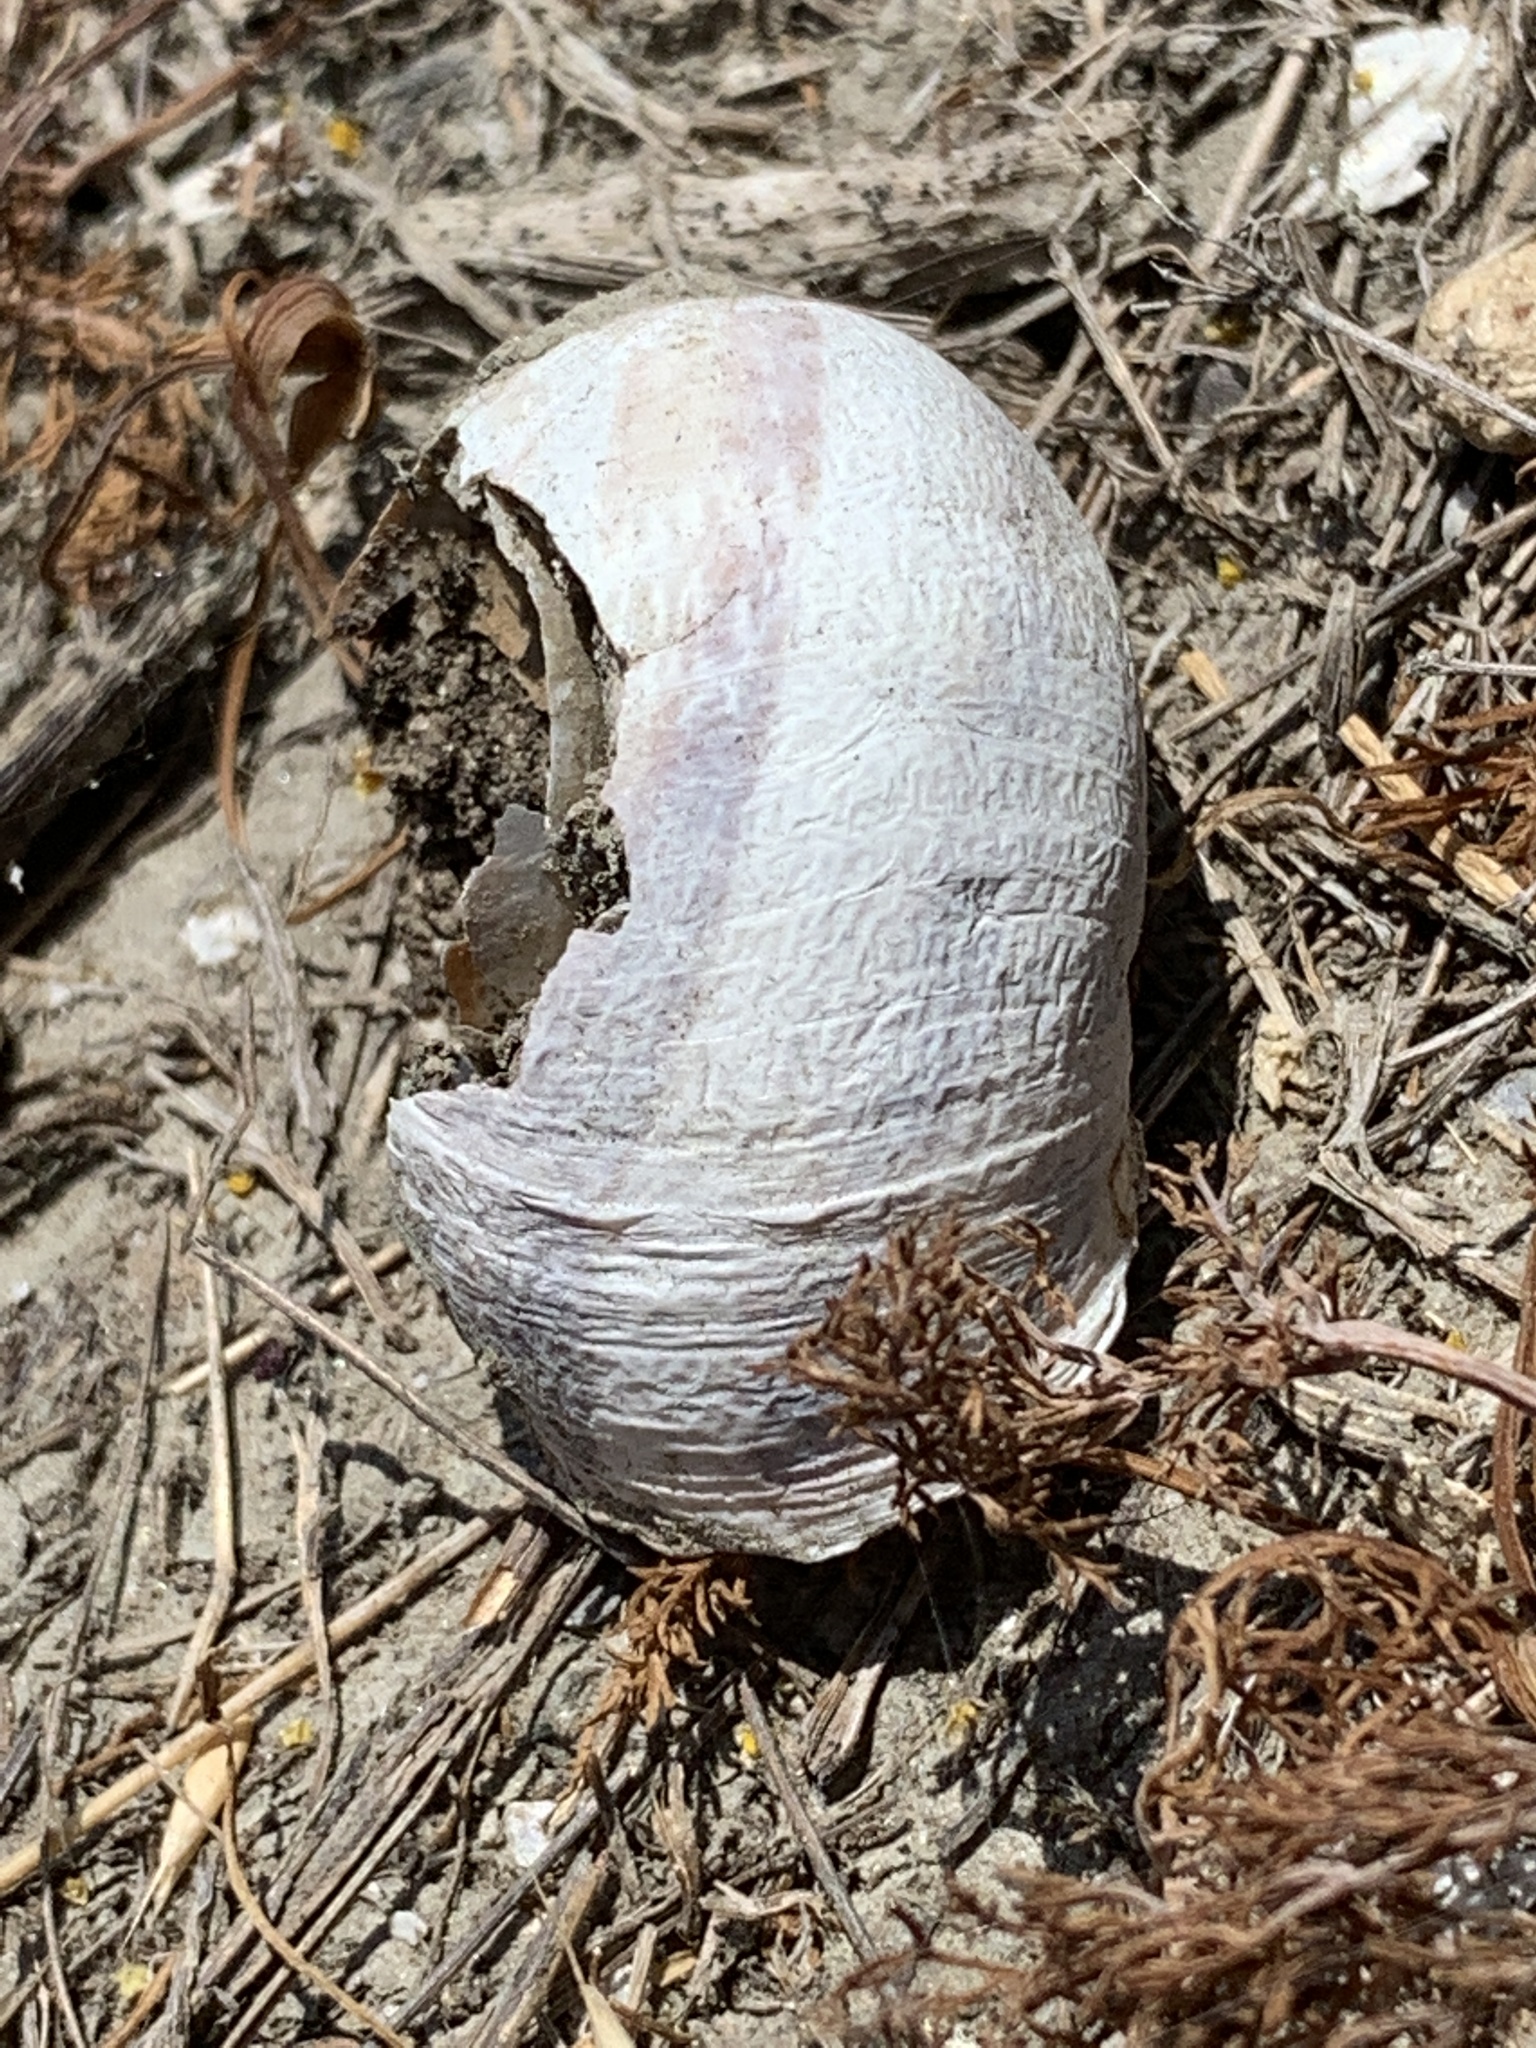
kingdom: Animalia
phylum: Mollusca
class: Gastropoda
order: Stylommatophora
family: Helicidae
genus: Cornu
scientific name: Cornu aspersum
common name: Brown garden snail
